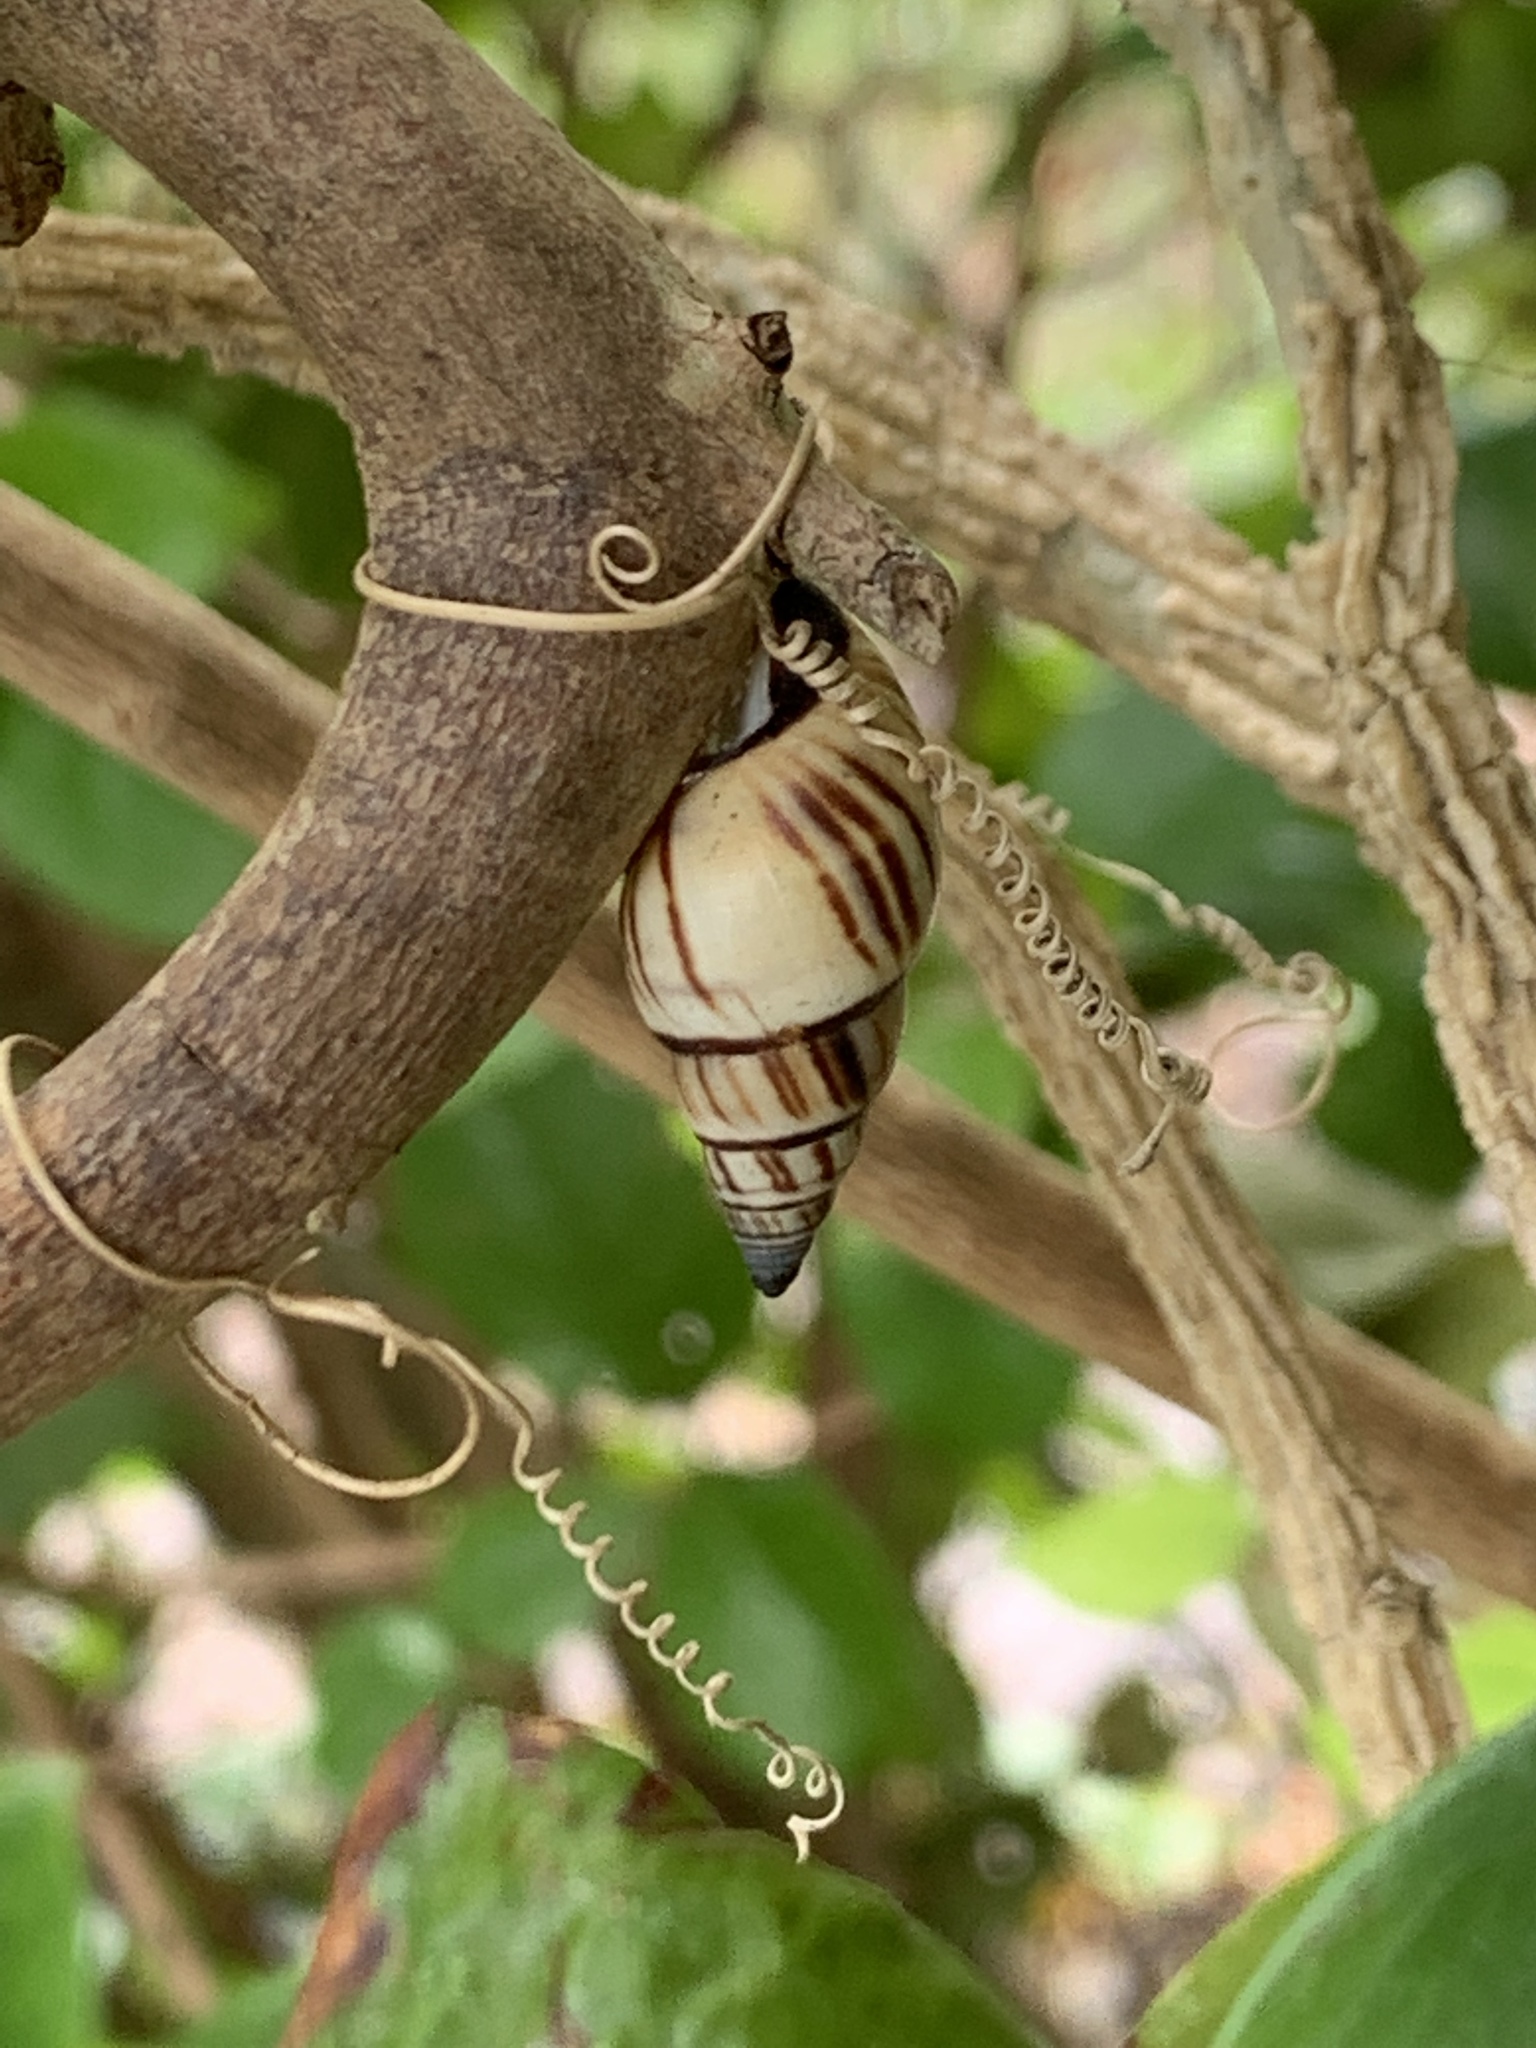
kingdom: Animalia
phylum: Mollusca
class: Gastropoda
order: Stylommatophora
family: Bulimulidae
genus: Drymaeus
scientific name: Drymaeus
